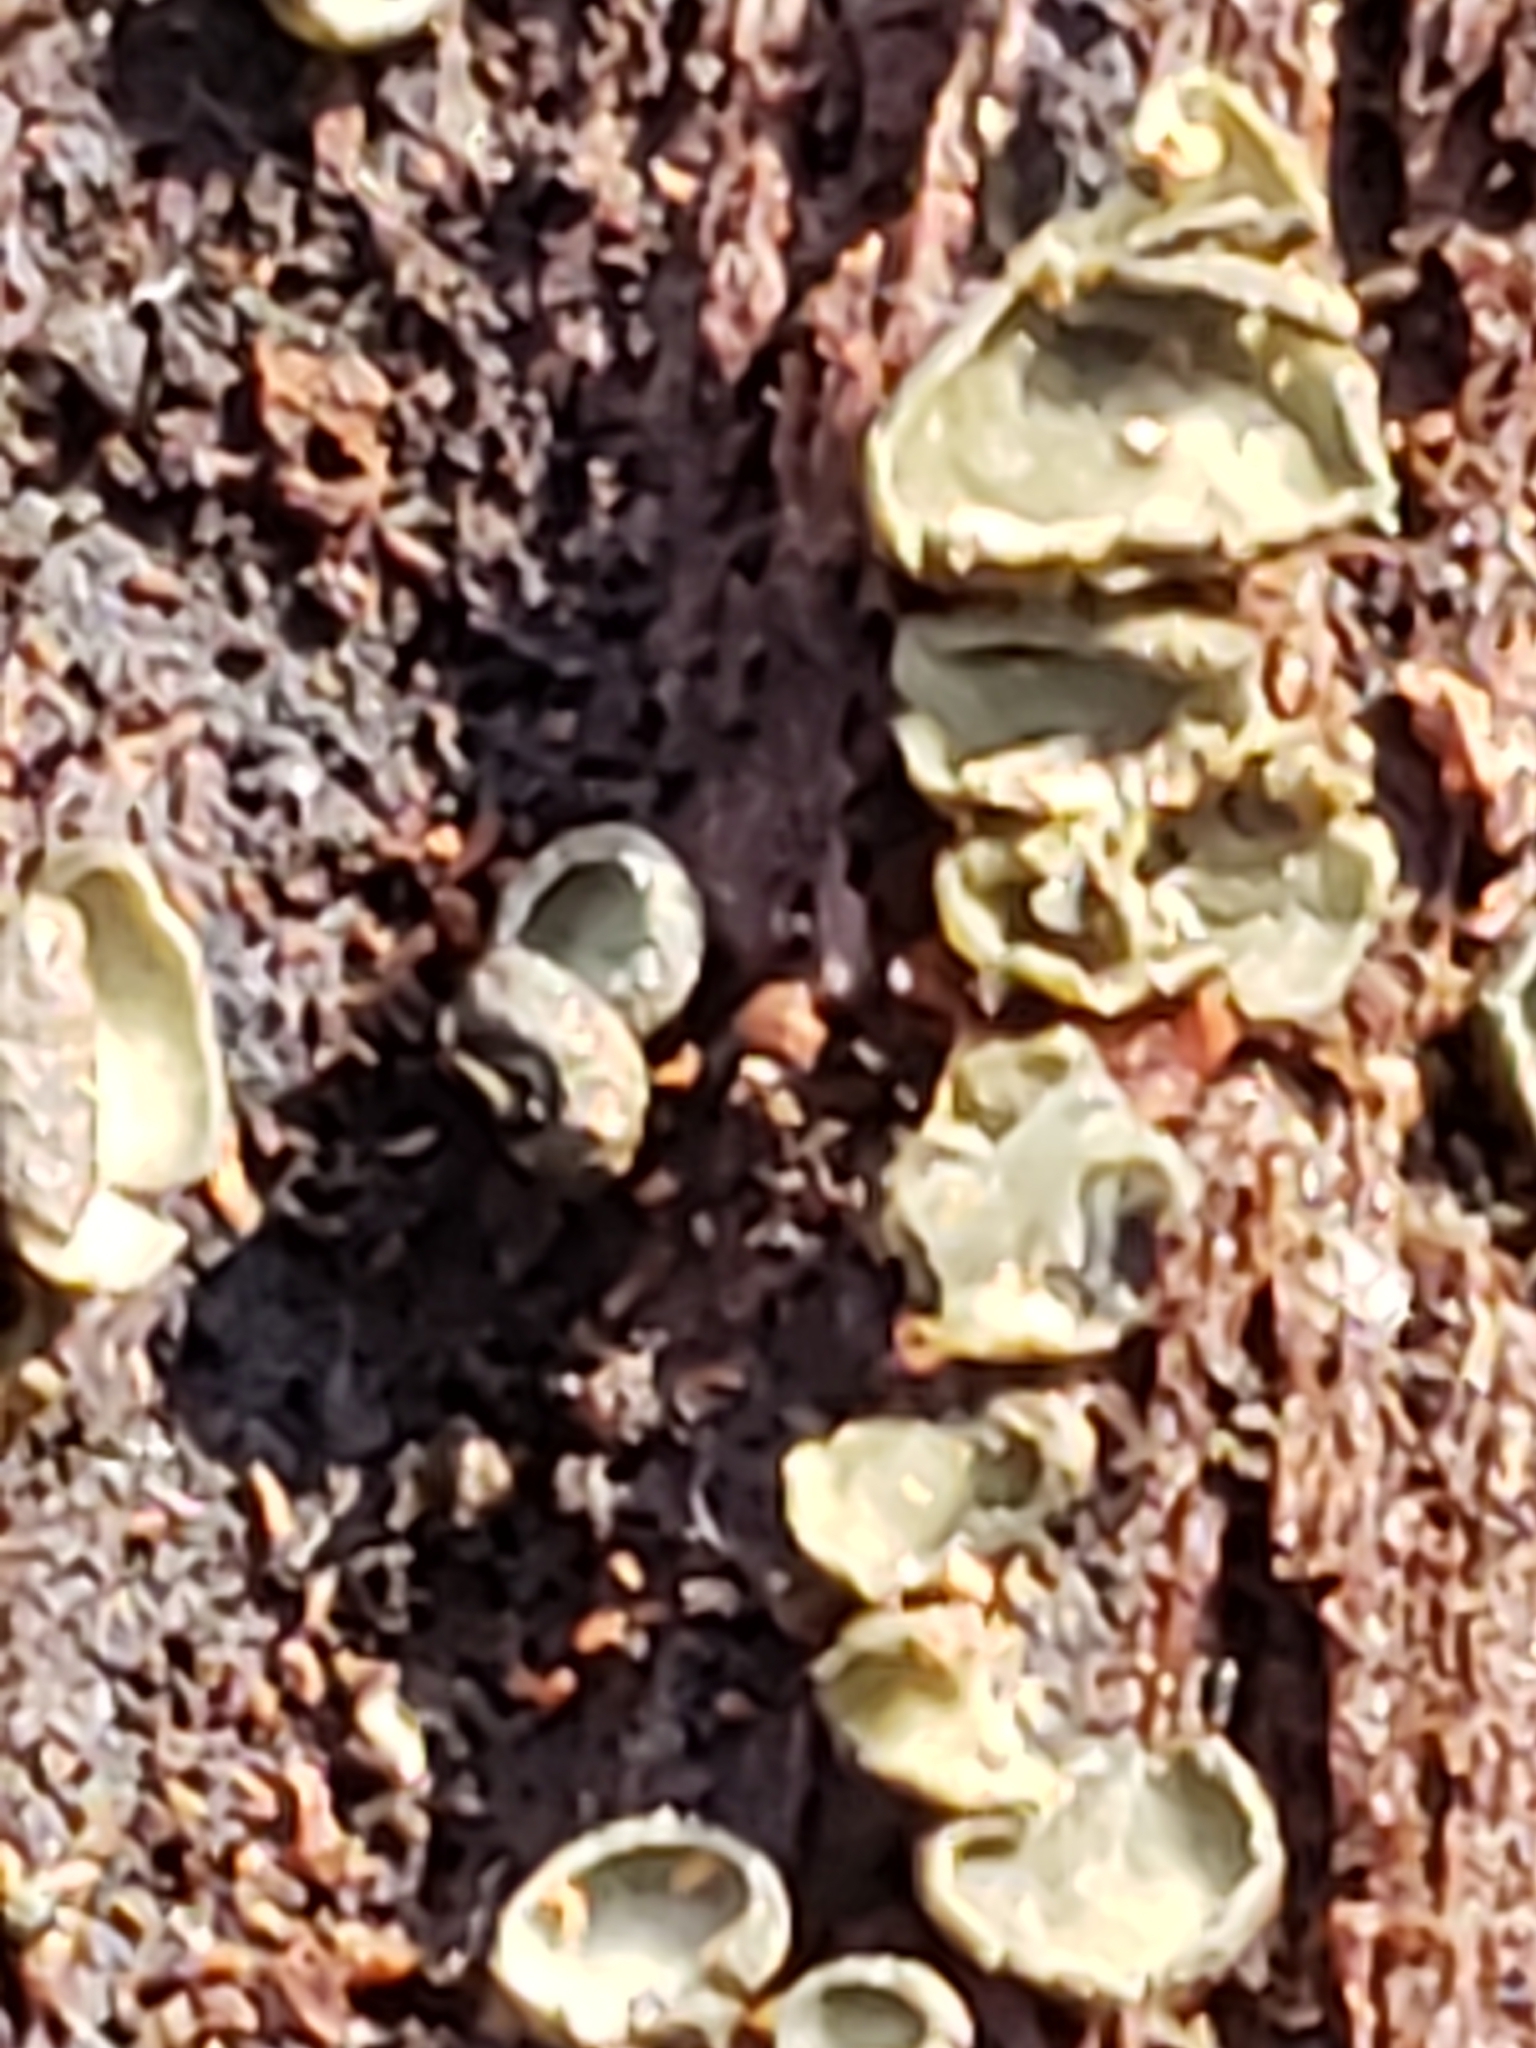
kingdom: Fungi
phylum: Ascomycota
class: Leotiomycetes
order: Helotiales
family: Chlorospleniaceae
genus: Chlorosplenium
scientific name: Chlorosplenium chlora
